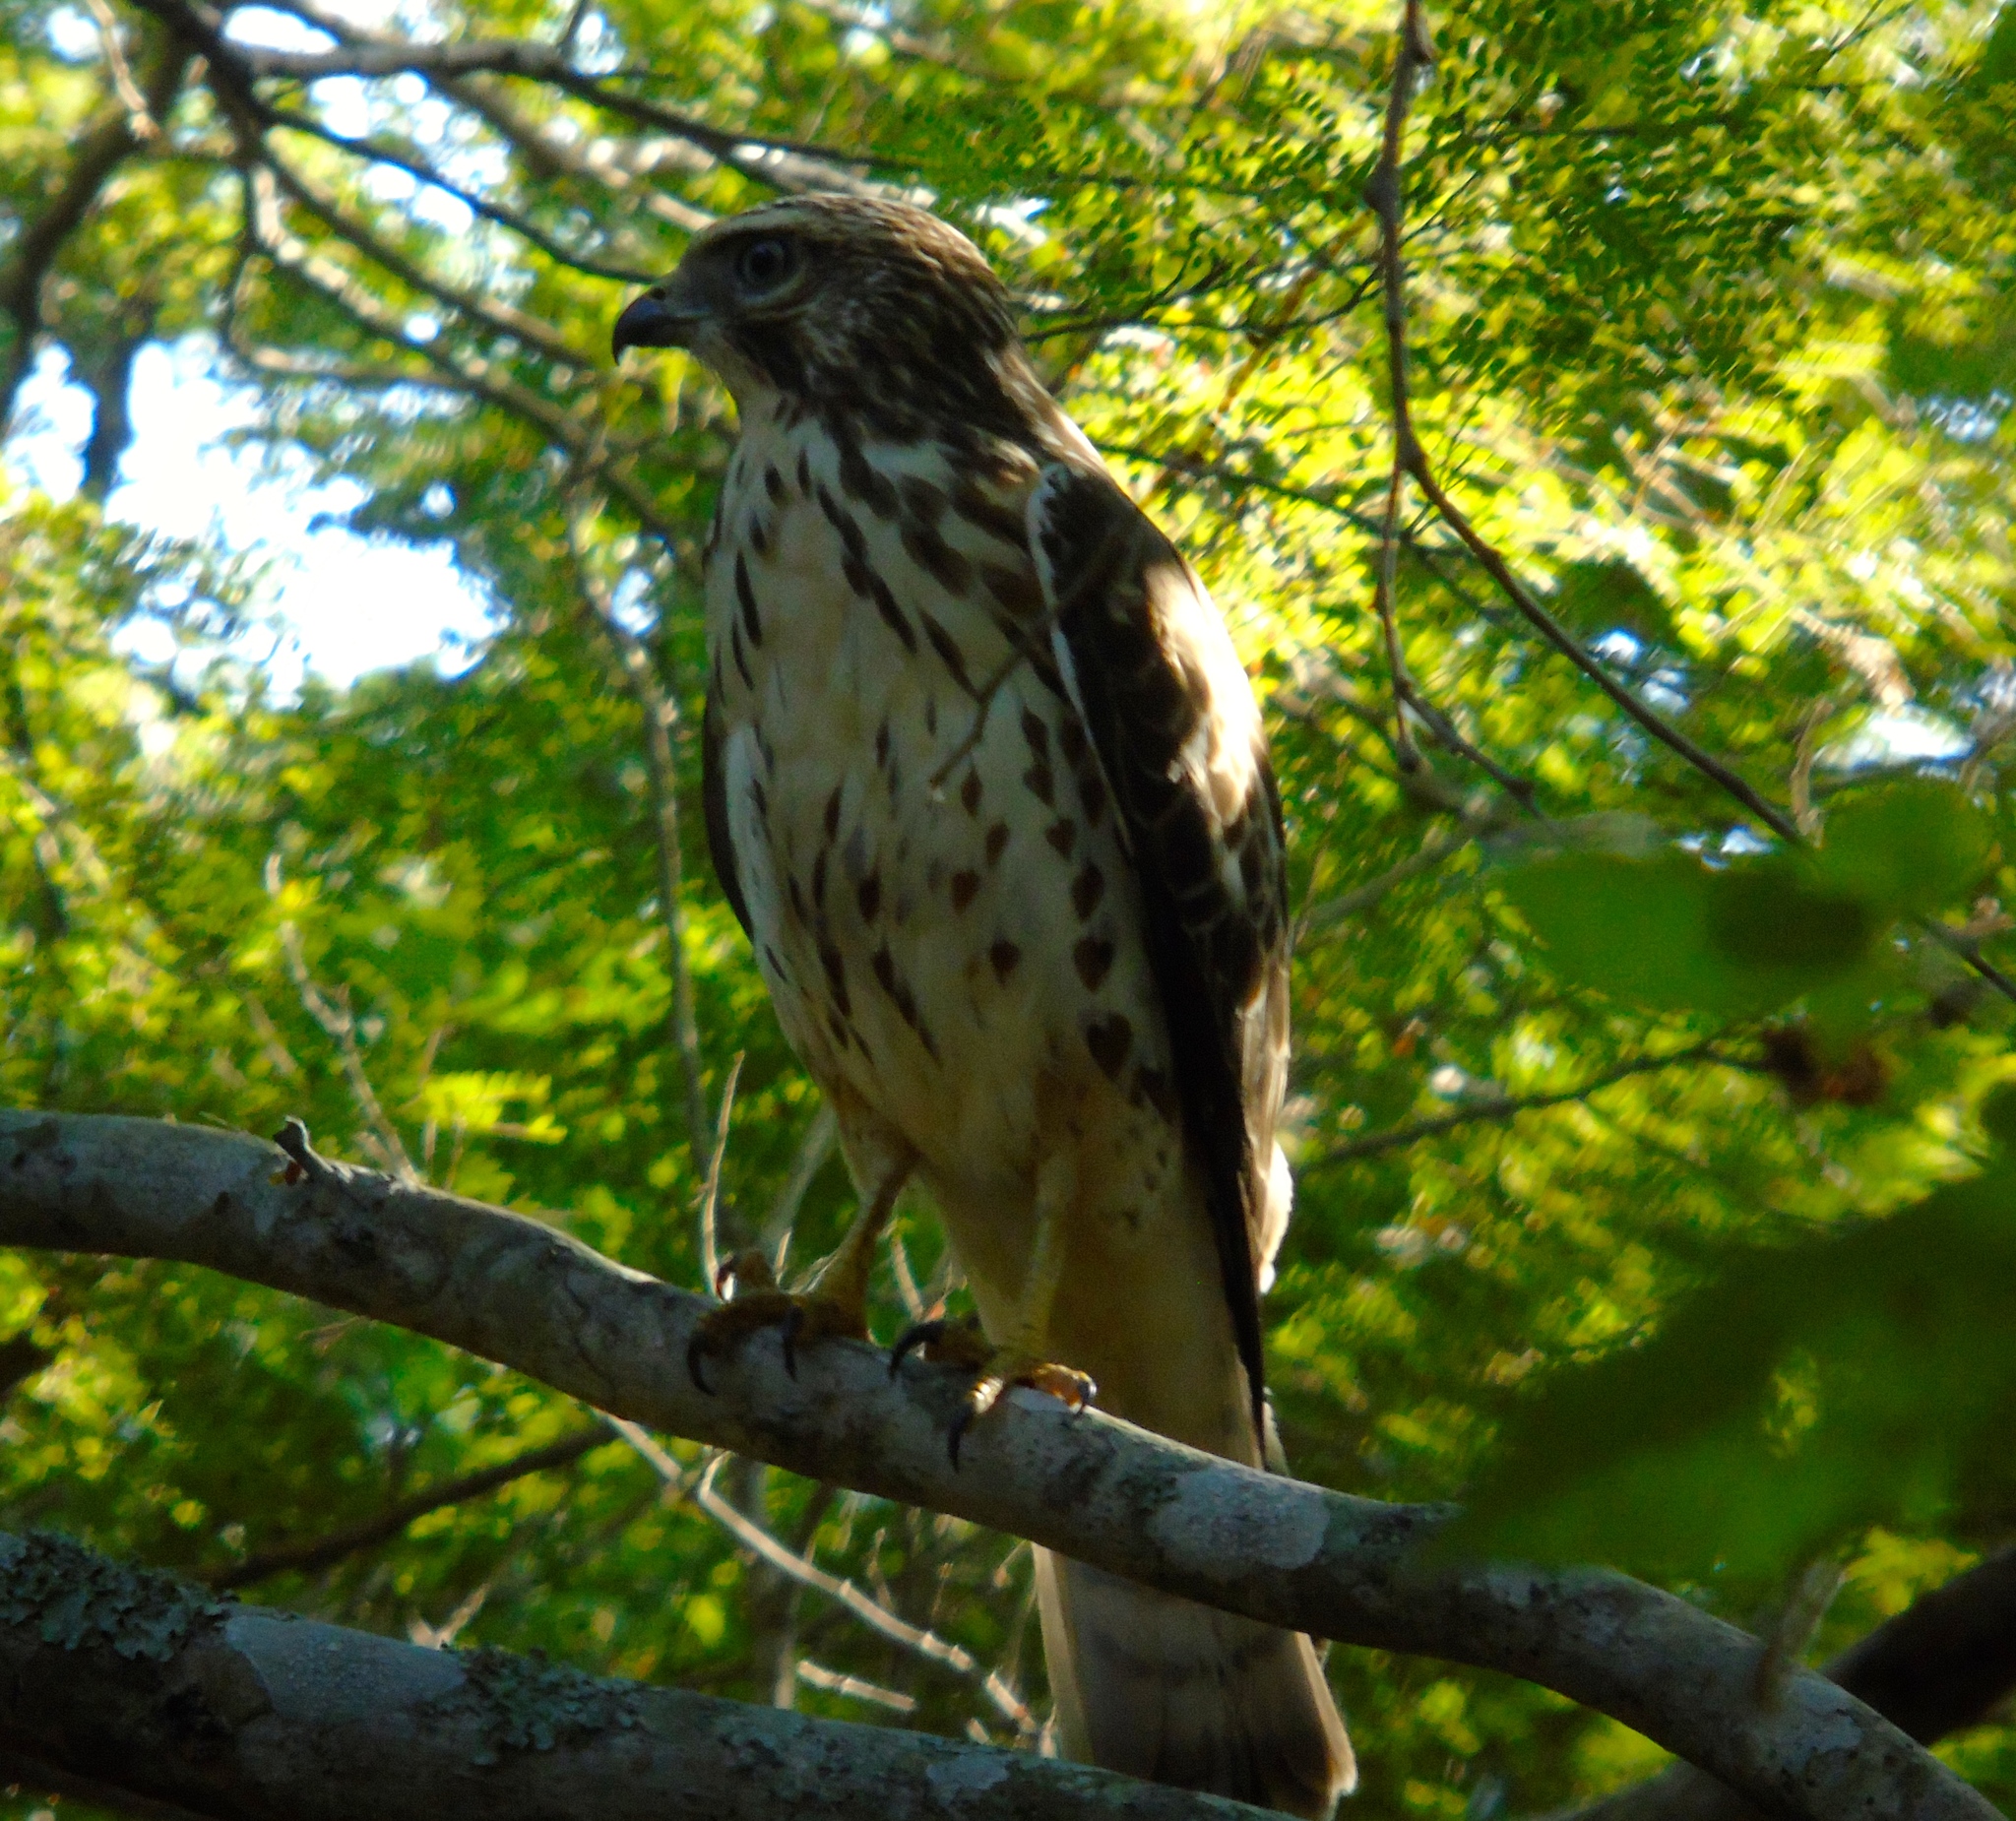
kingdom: Animalia
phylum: Chordata
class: Aves
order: Accipitriformes
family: Accipitridae
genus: Buteo
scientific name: Buteo jamaicensis
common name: Red-tailed hawk
